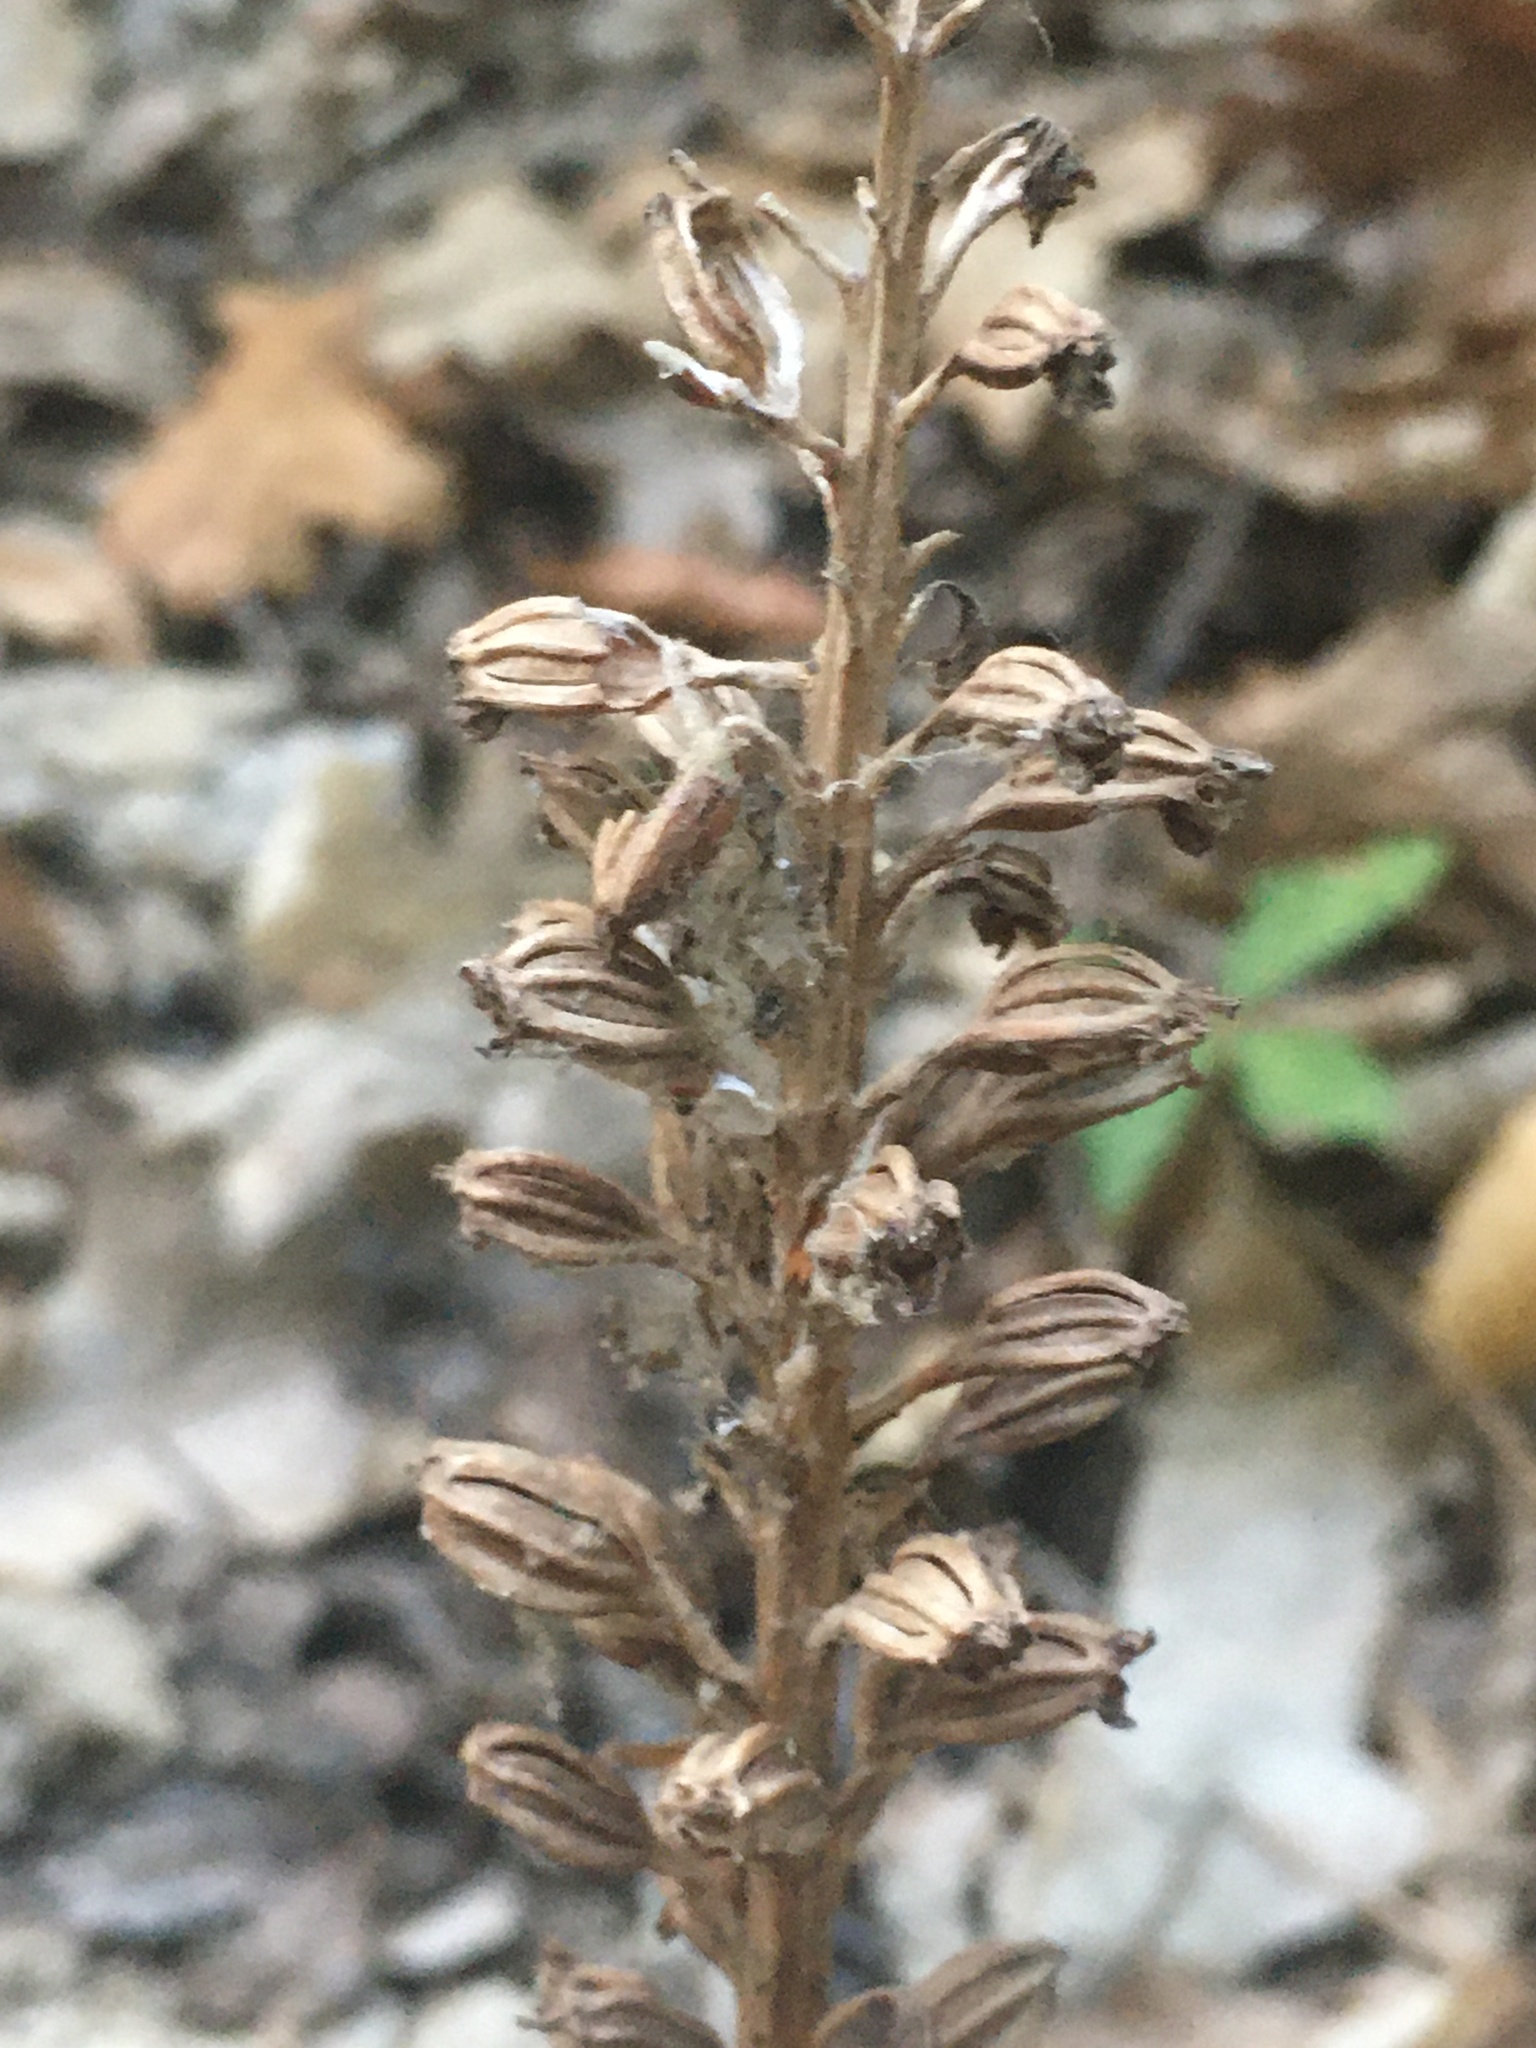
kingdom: Plantae
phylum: Tracheophyta
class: Liliopsida
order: Asparagales
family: Orchidaceae
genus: Neottia
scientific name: Neottia nidus-avis
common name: Bird's-nest orchid
